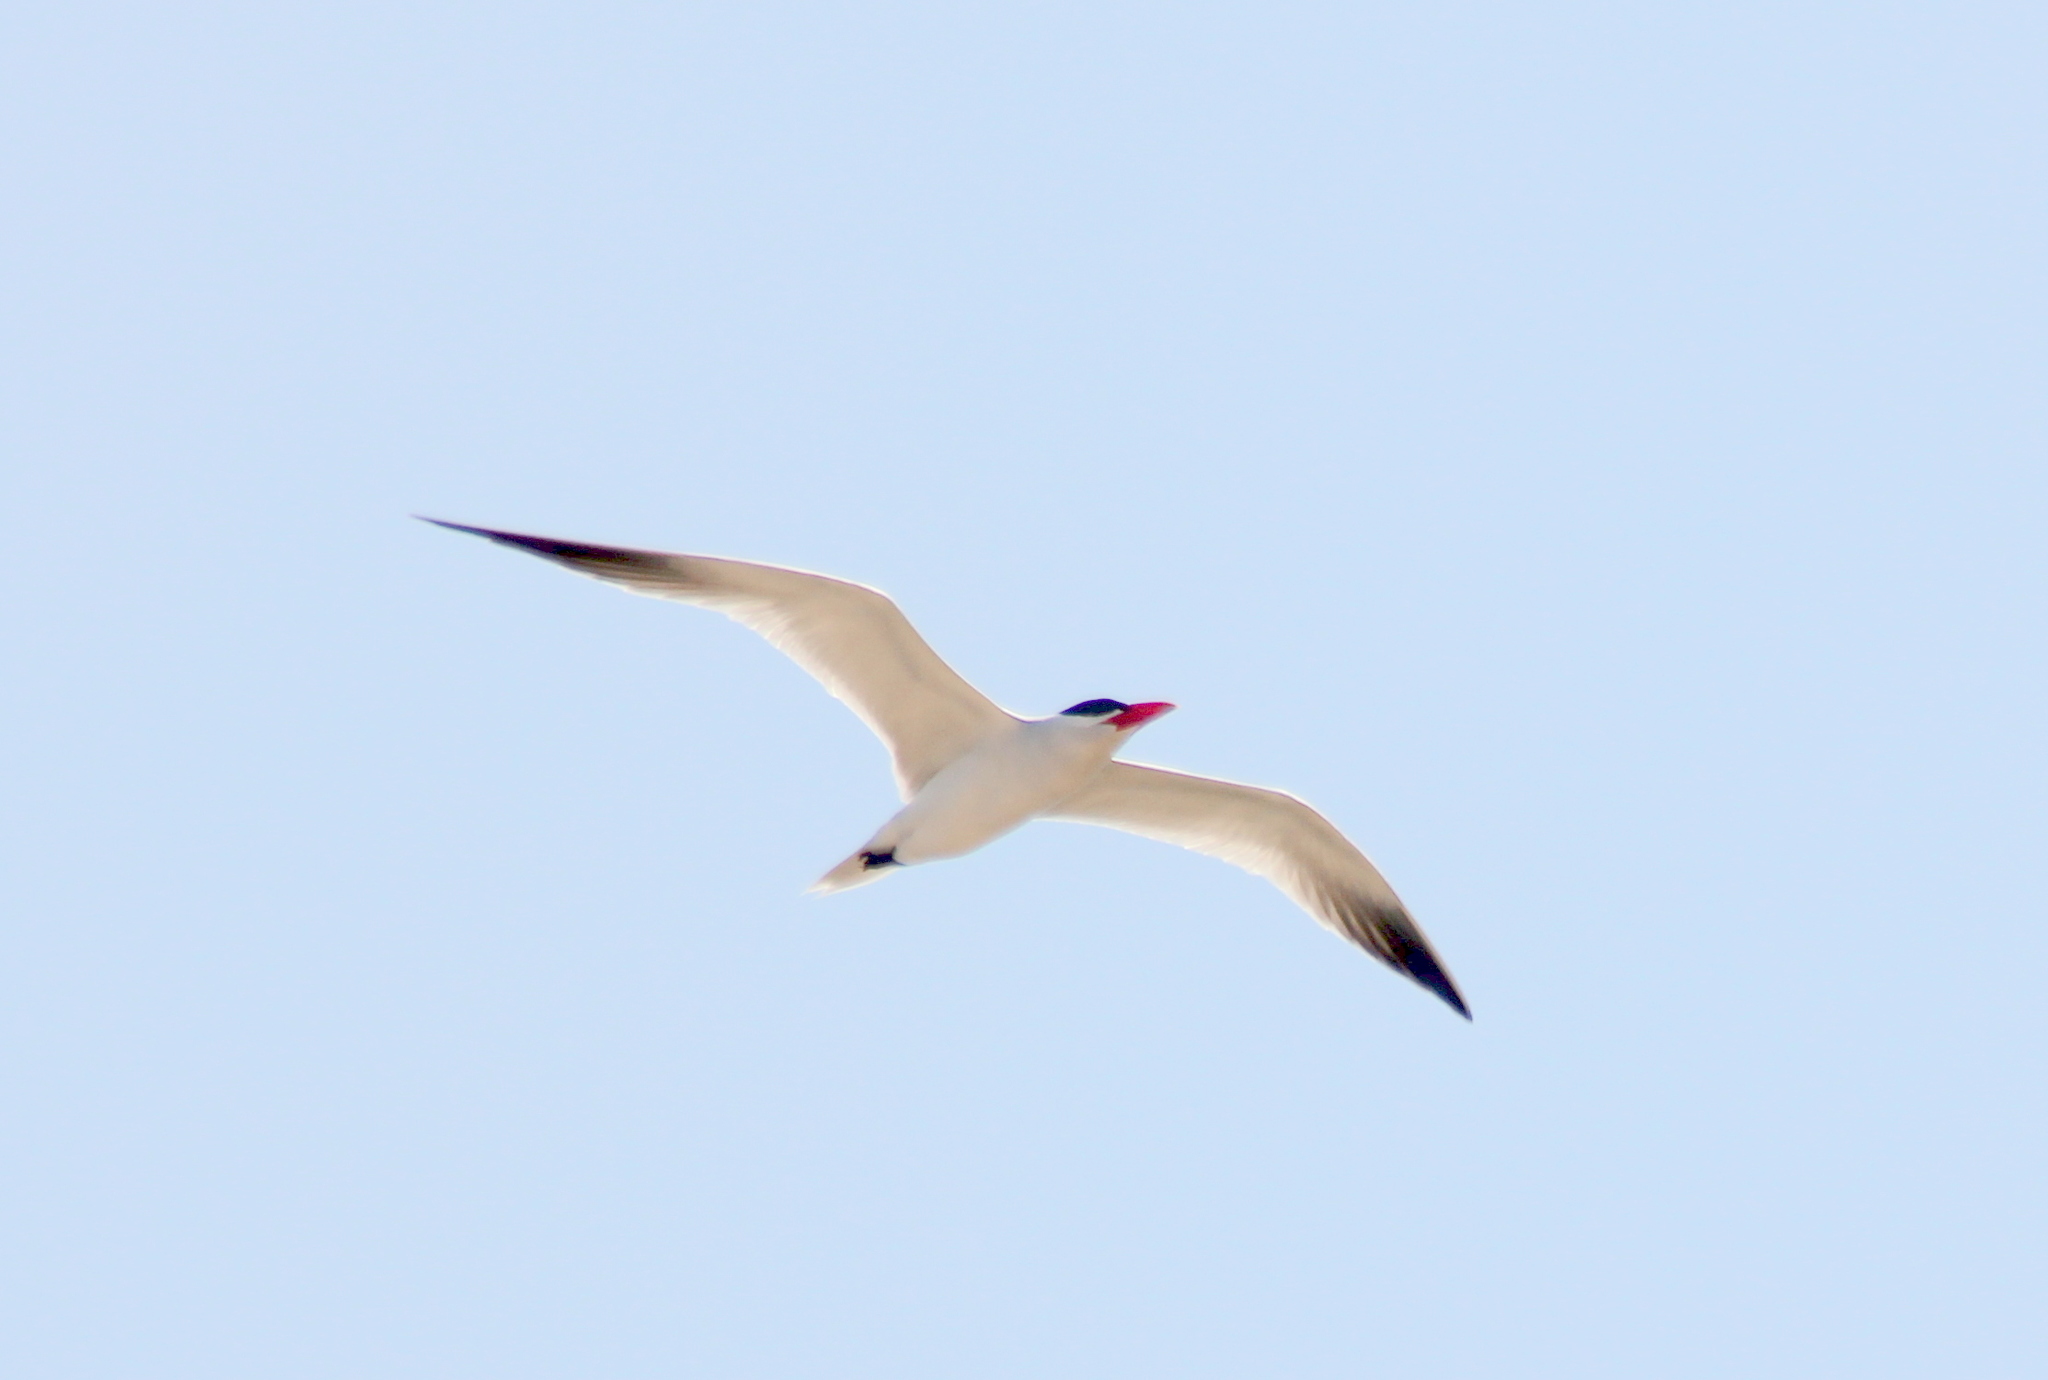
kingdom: Animalia
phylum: Chordata
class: Aves
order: Charadriiformes
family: Laridae
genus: Hydroprogne
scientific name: Hydroprogne caspia
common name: Caspian tern
